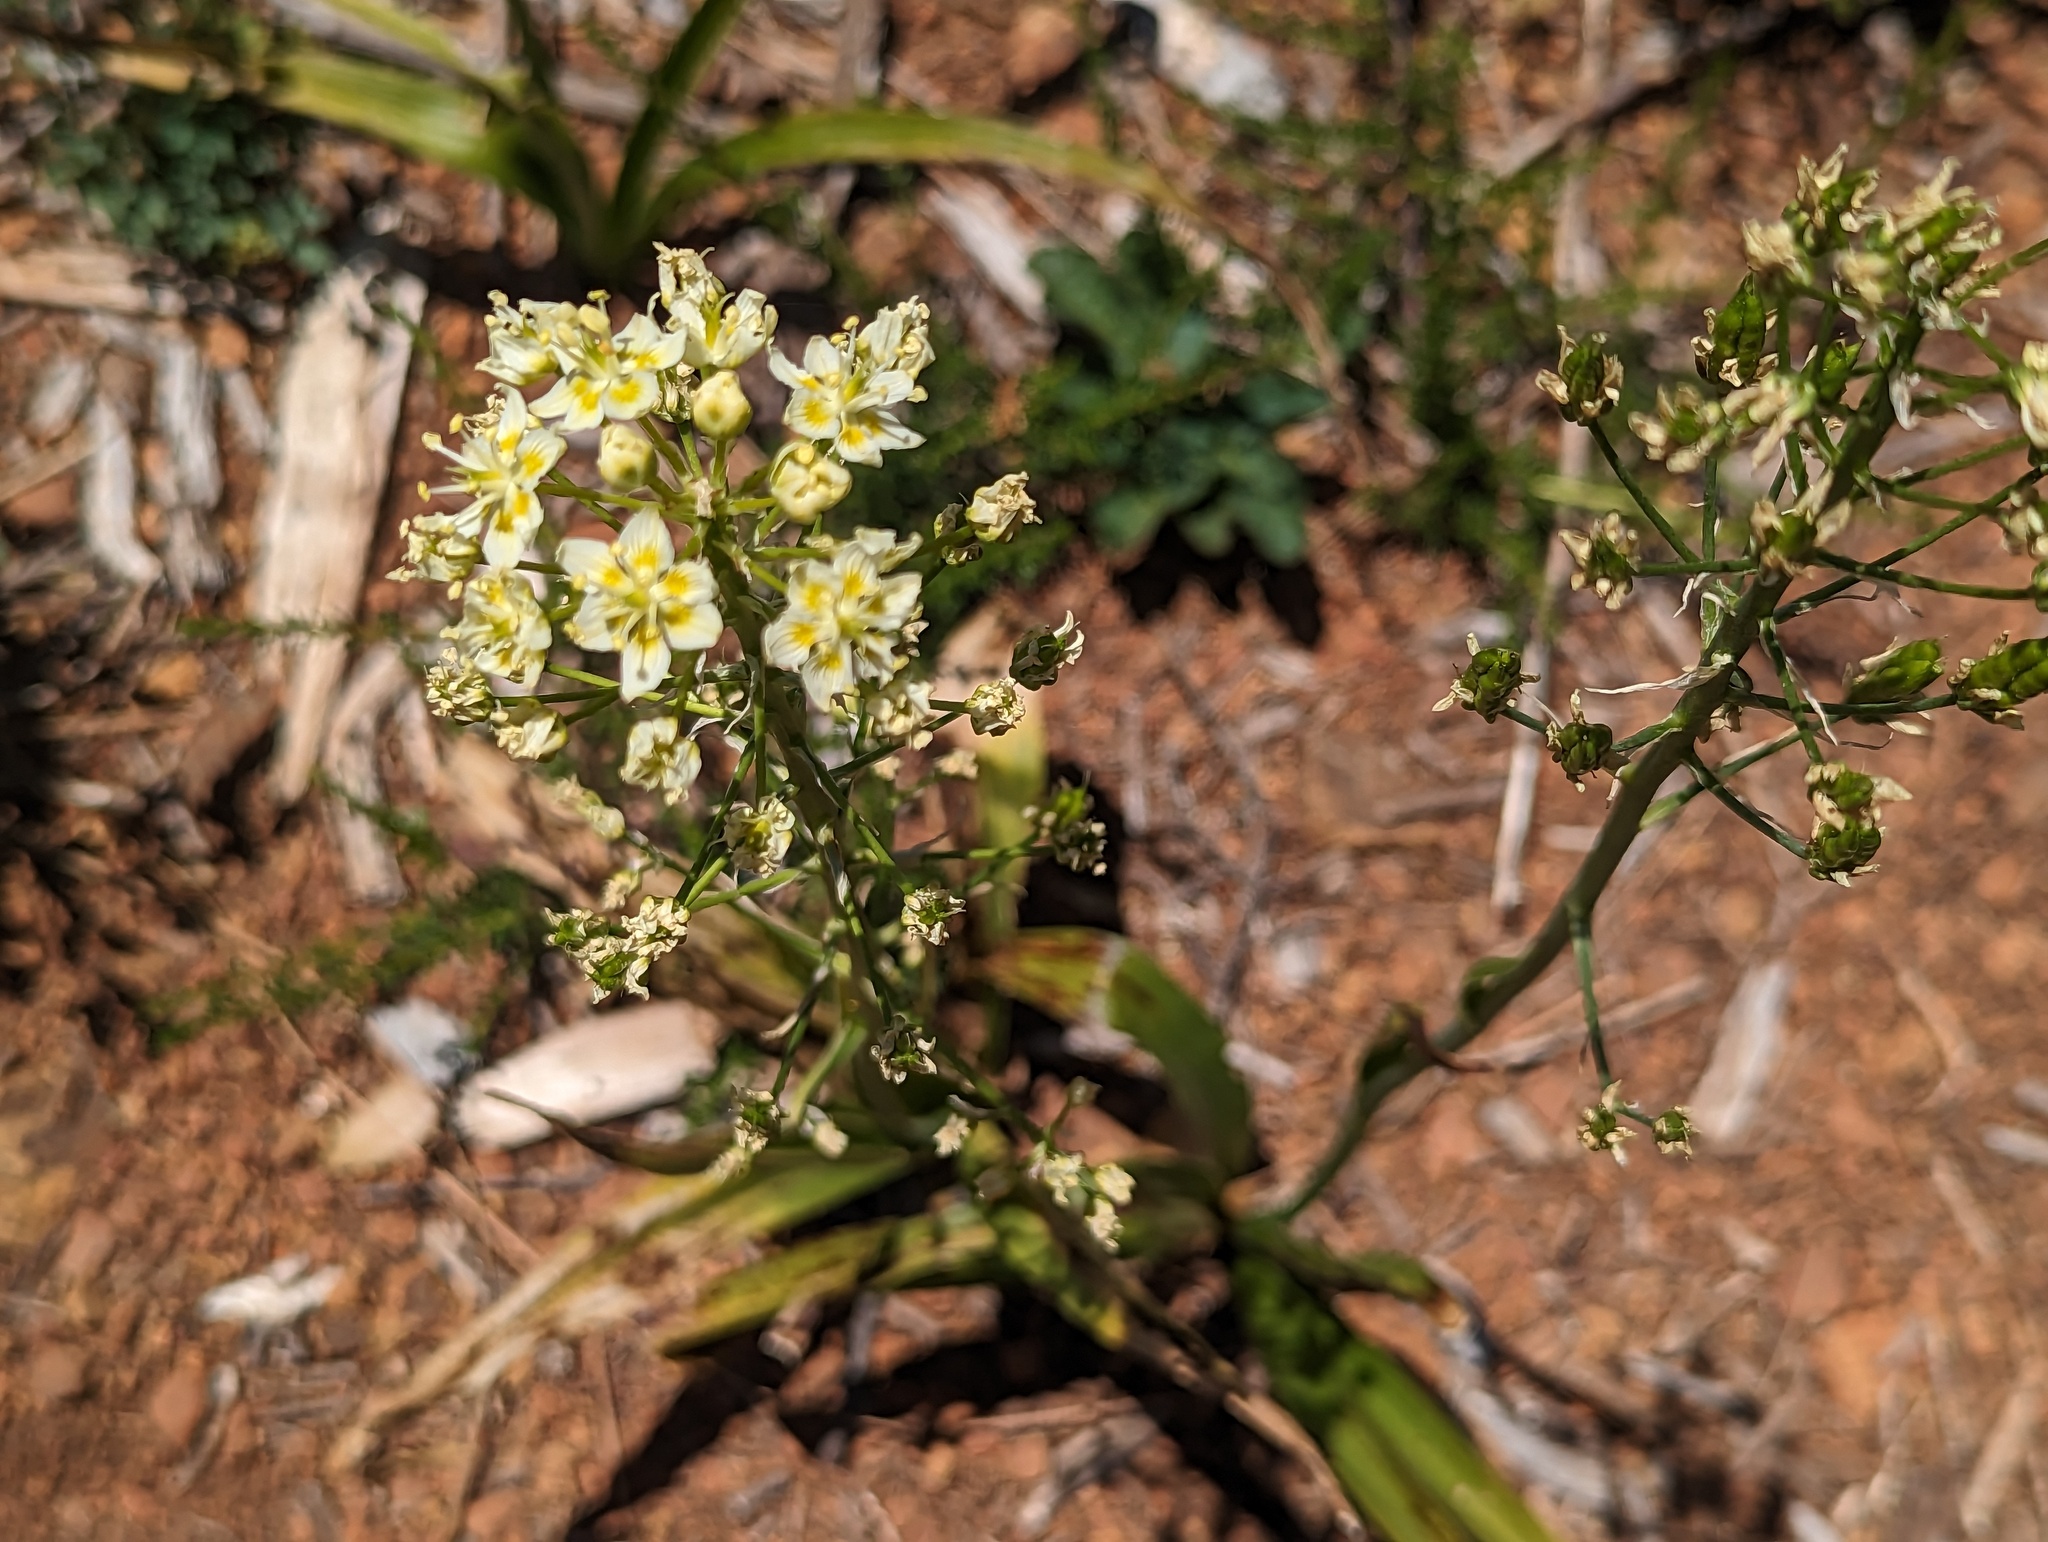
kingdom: Plantae
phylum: Tracheophyta
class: Liliopsida
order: Liliales
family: Melanthiaceae
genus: Toxicoscordion
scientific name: Toxicoscordion fremontii
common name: Fremont's death camas
